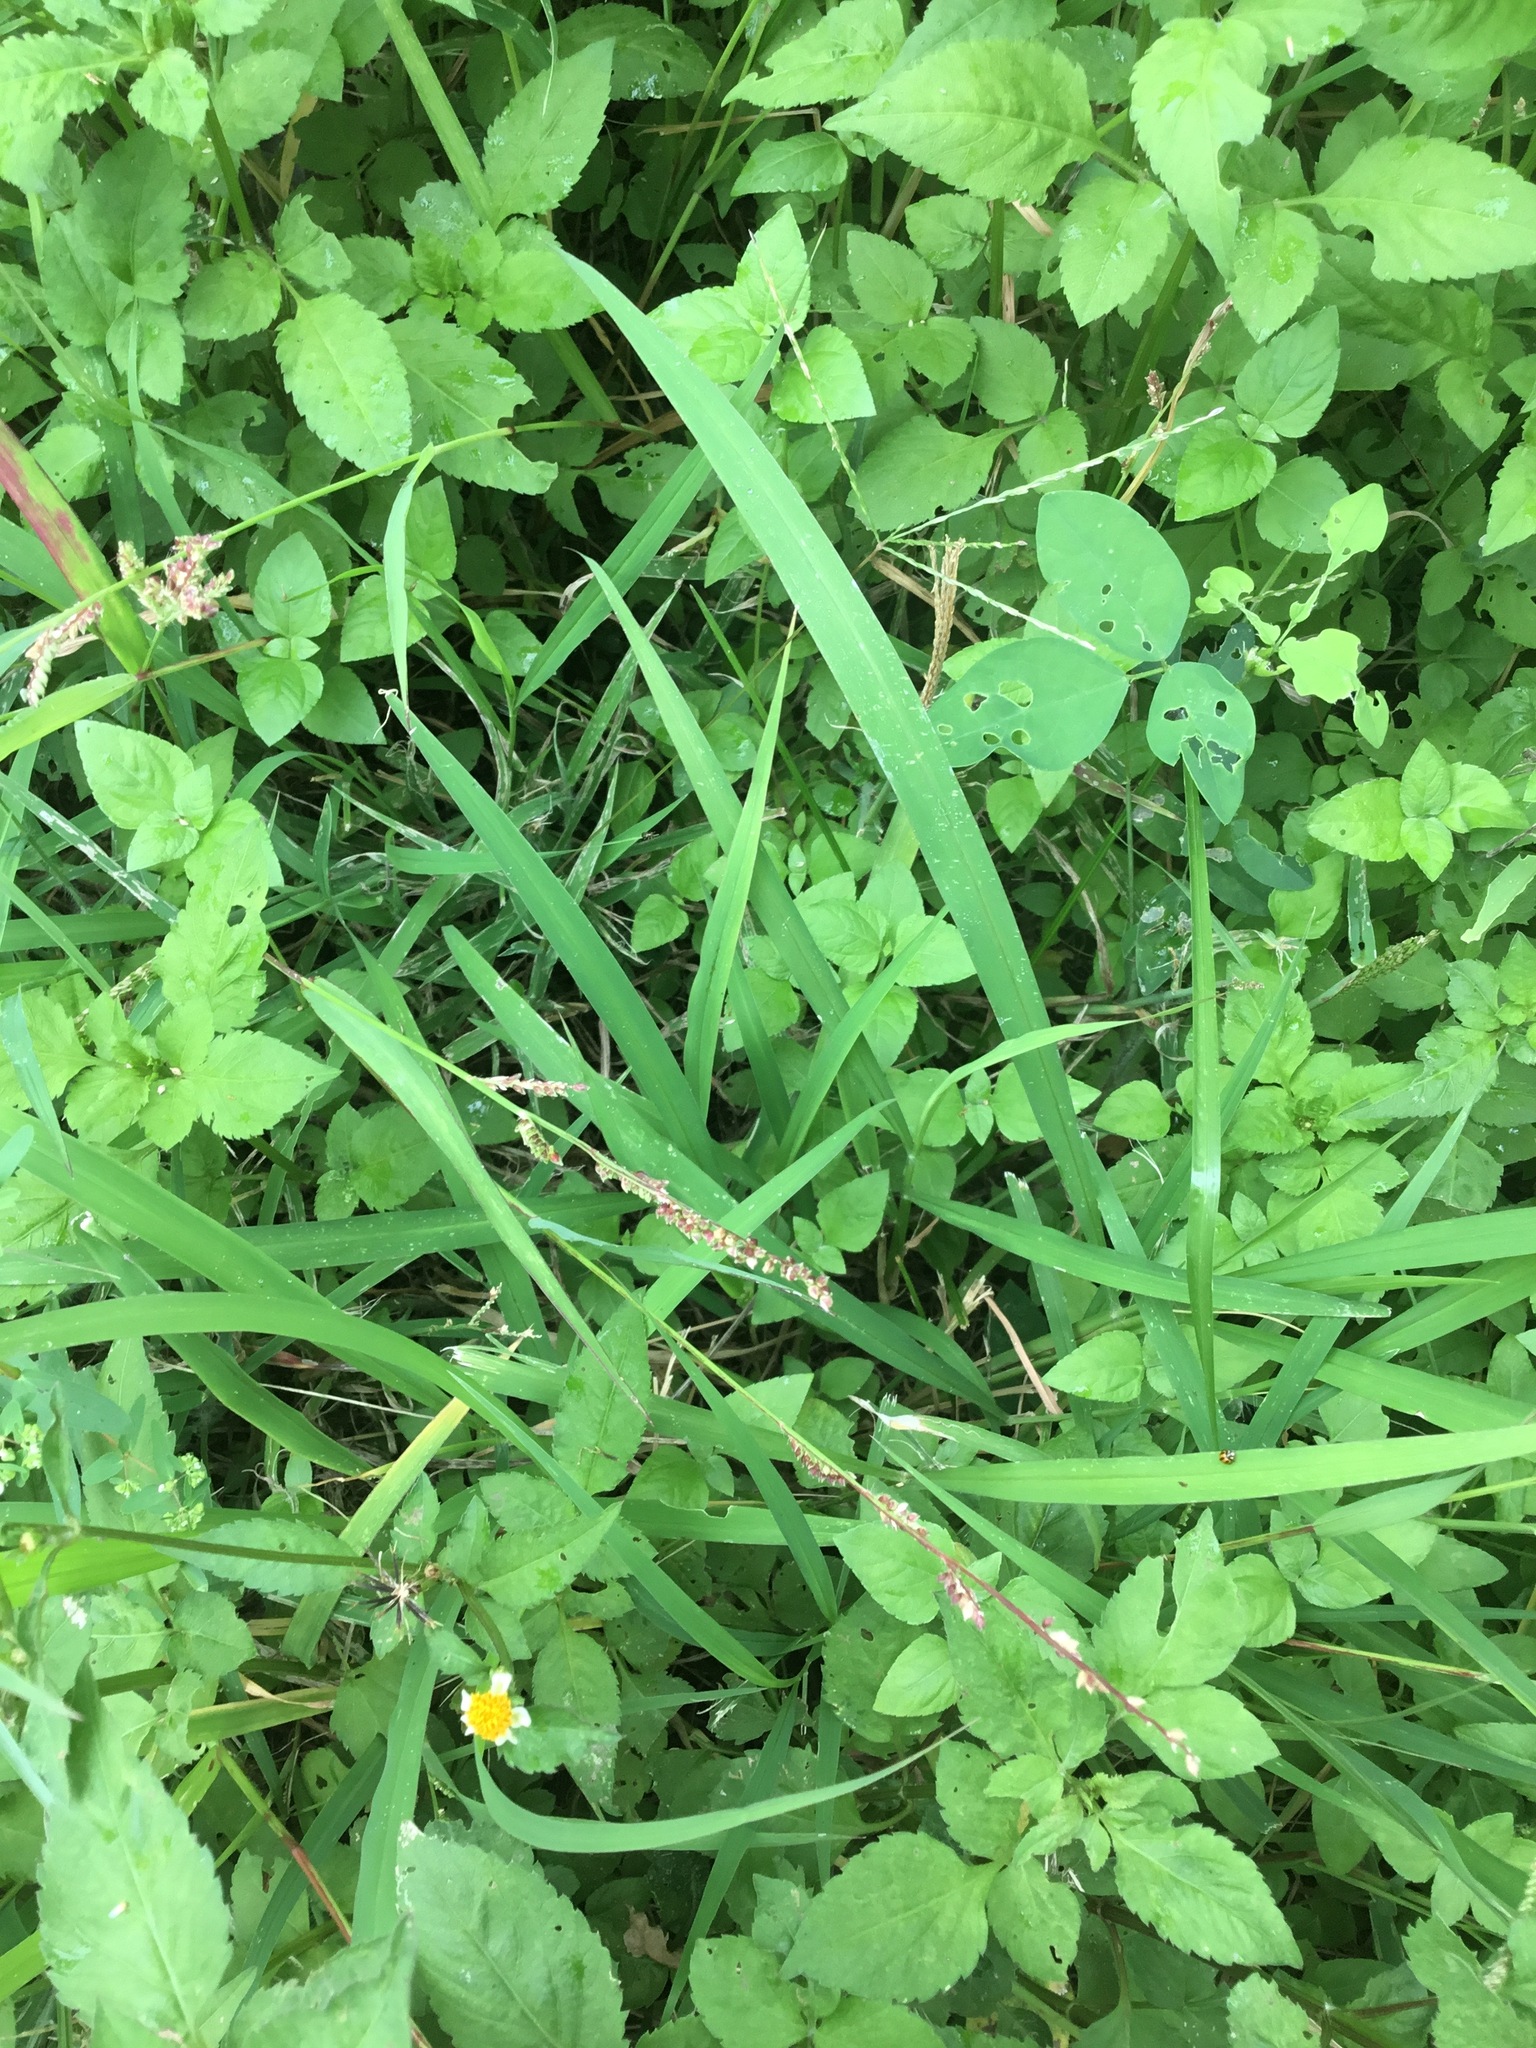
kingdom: Plantae
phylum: Tracheophyta
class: Liliopsida
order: Poales
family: Poaceae
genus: Echinochloa
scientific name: Echinochloa colonum
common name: Jungle rice
